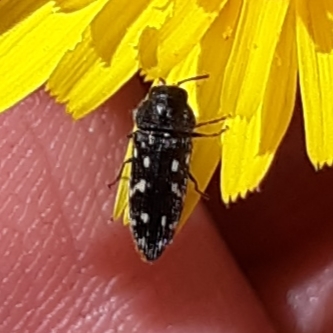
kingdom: Animalia
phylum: Arthropoda
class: Insecta
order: Coleoptera
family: Buprestidae
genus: Acmaeodera
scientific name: Acmaeodera tubulus
